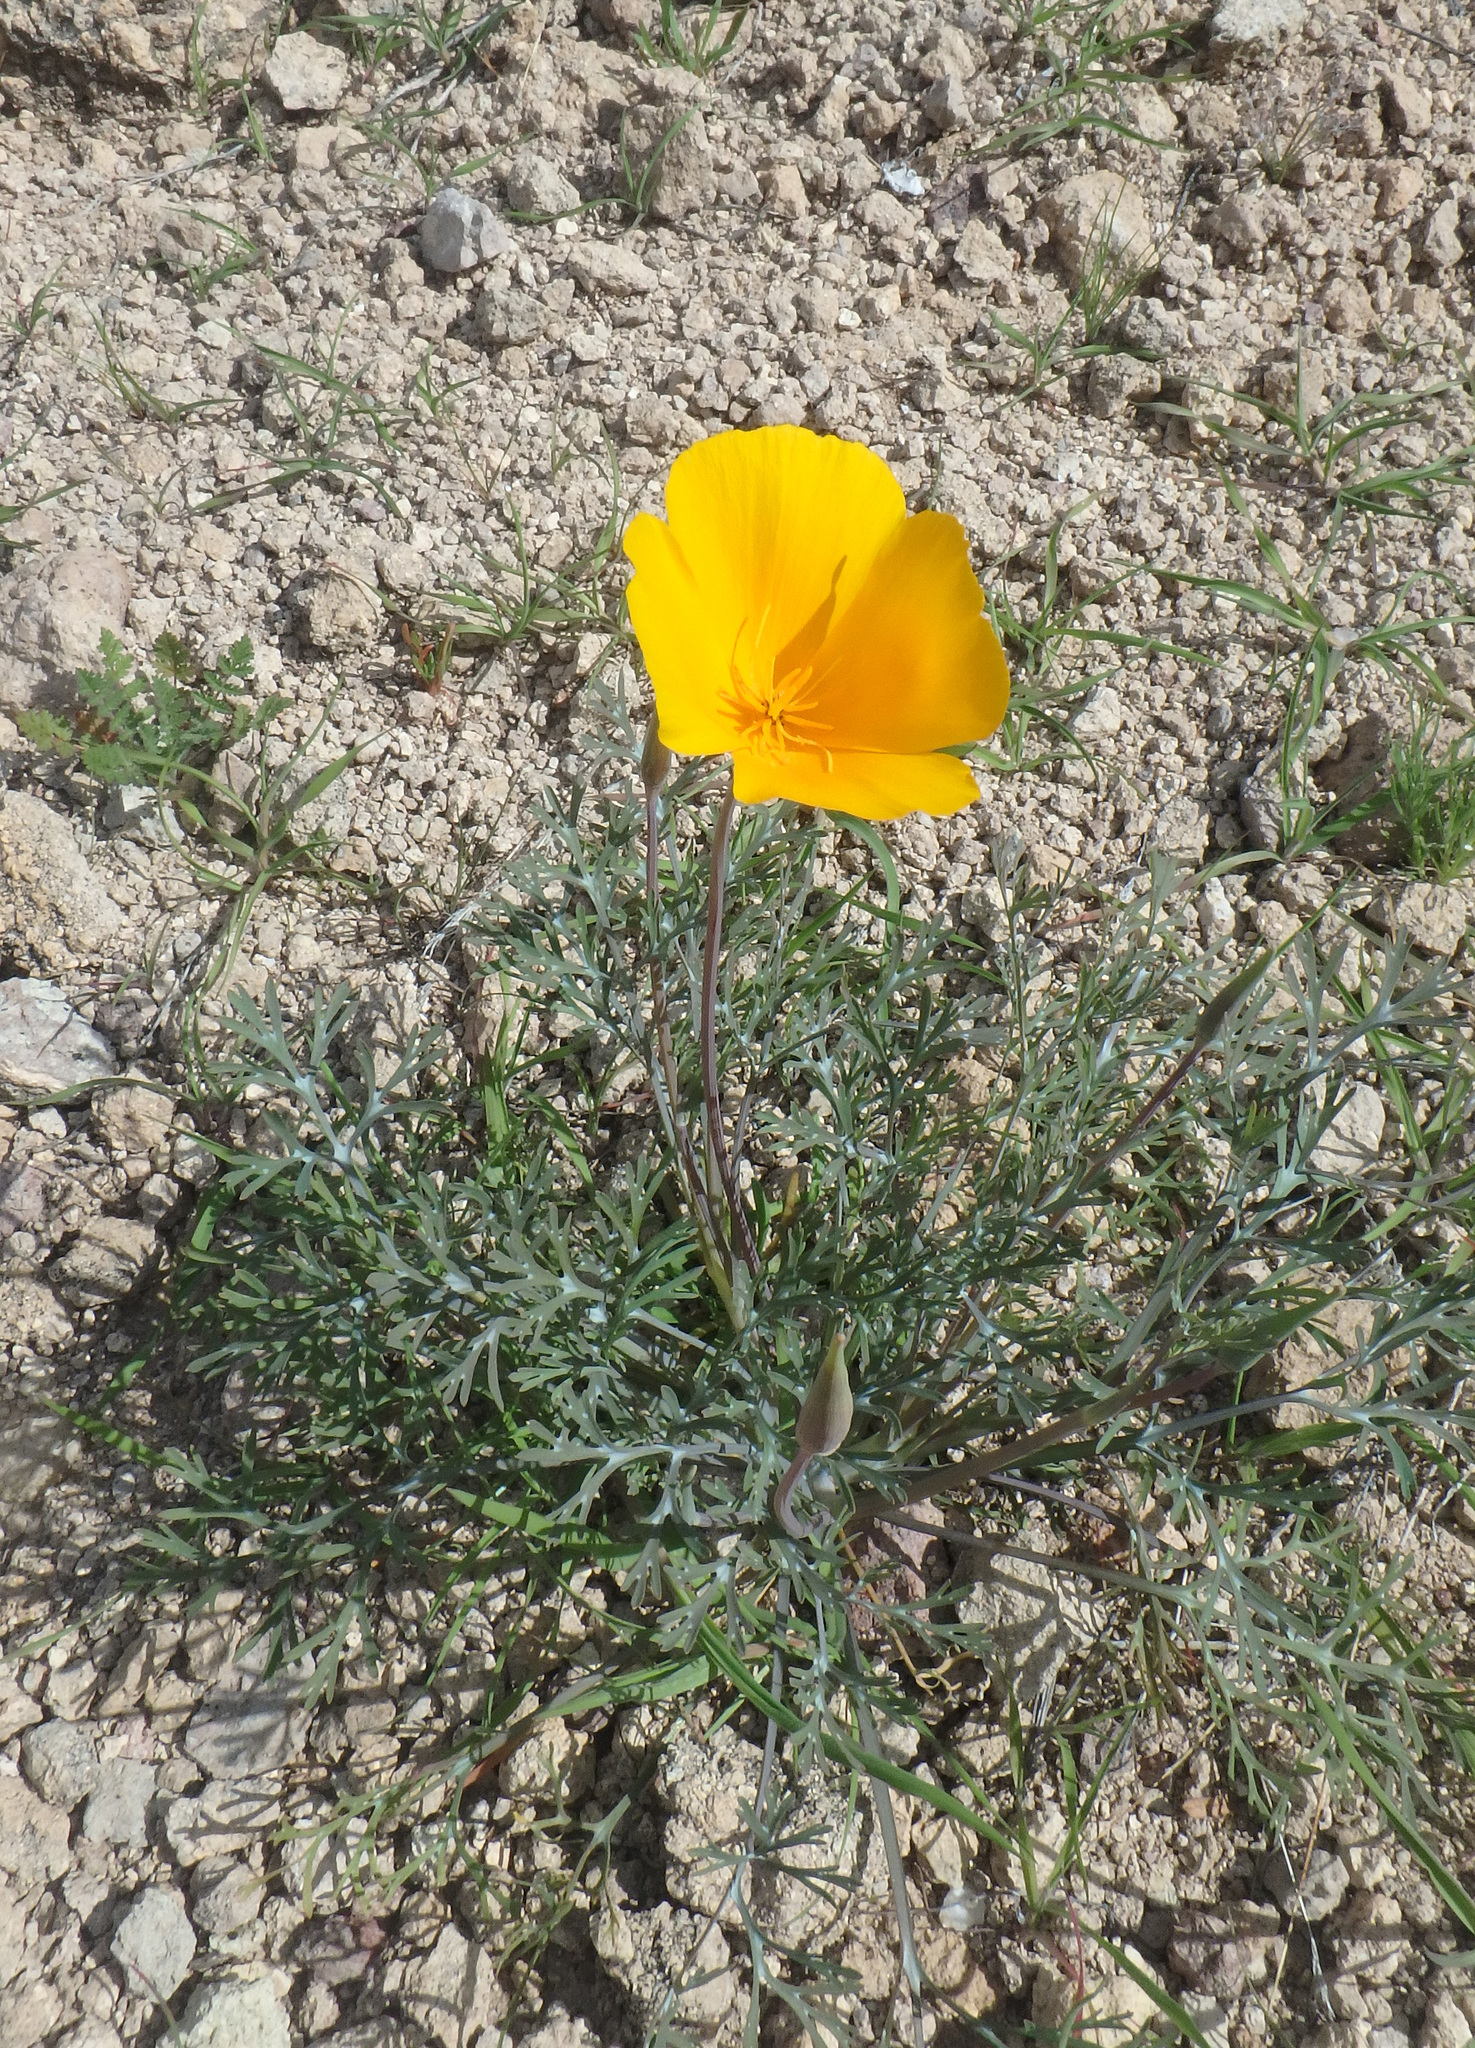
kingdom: Plantae
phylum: Tracheophyta
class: Magnoliopsida
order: Ranunculales
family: Papaveraceae
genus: Eschscholzia
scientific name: Eschscholzia californica
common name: California poppy
